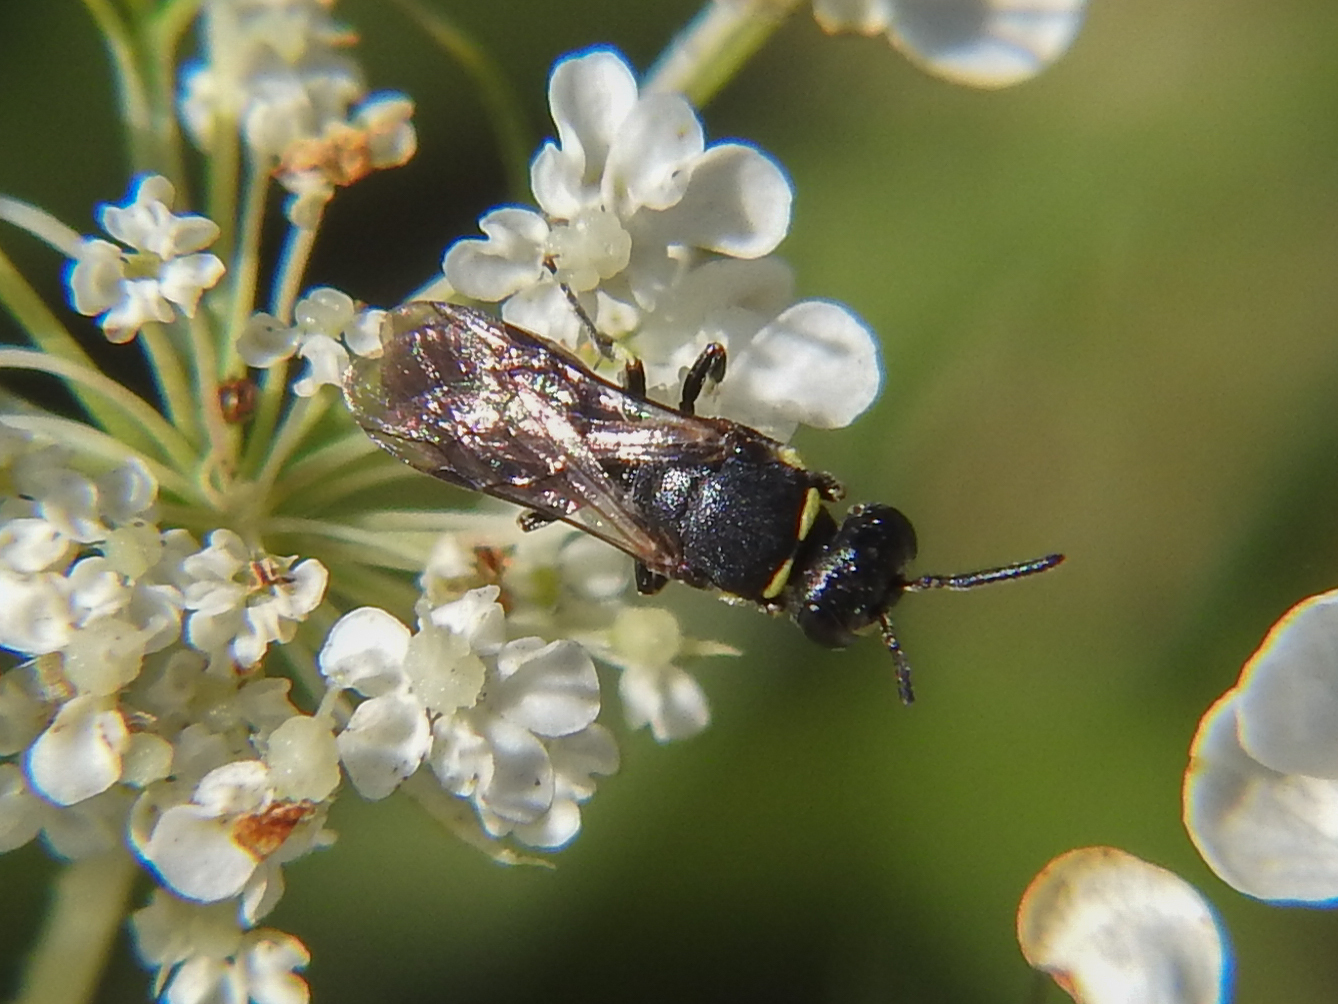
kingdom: Animalia
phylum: Arthropoda
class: Insecta
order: Hymenoptera
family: Colletidae
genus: Hylaeus
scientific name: Hylaeus modestus
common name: Yellow-faced bee
